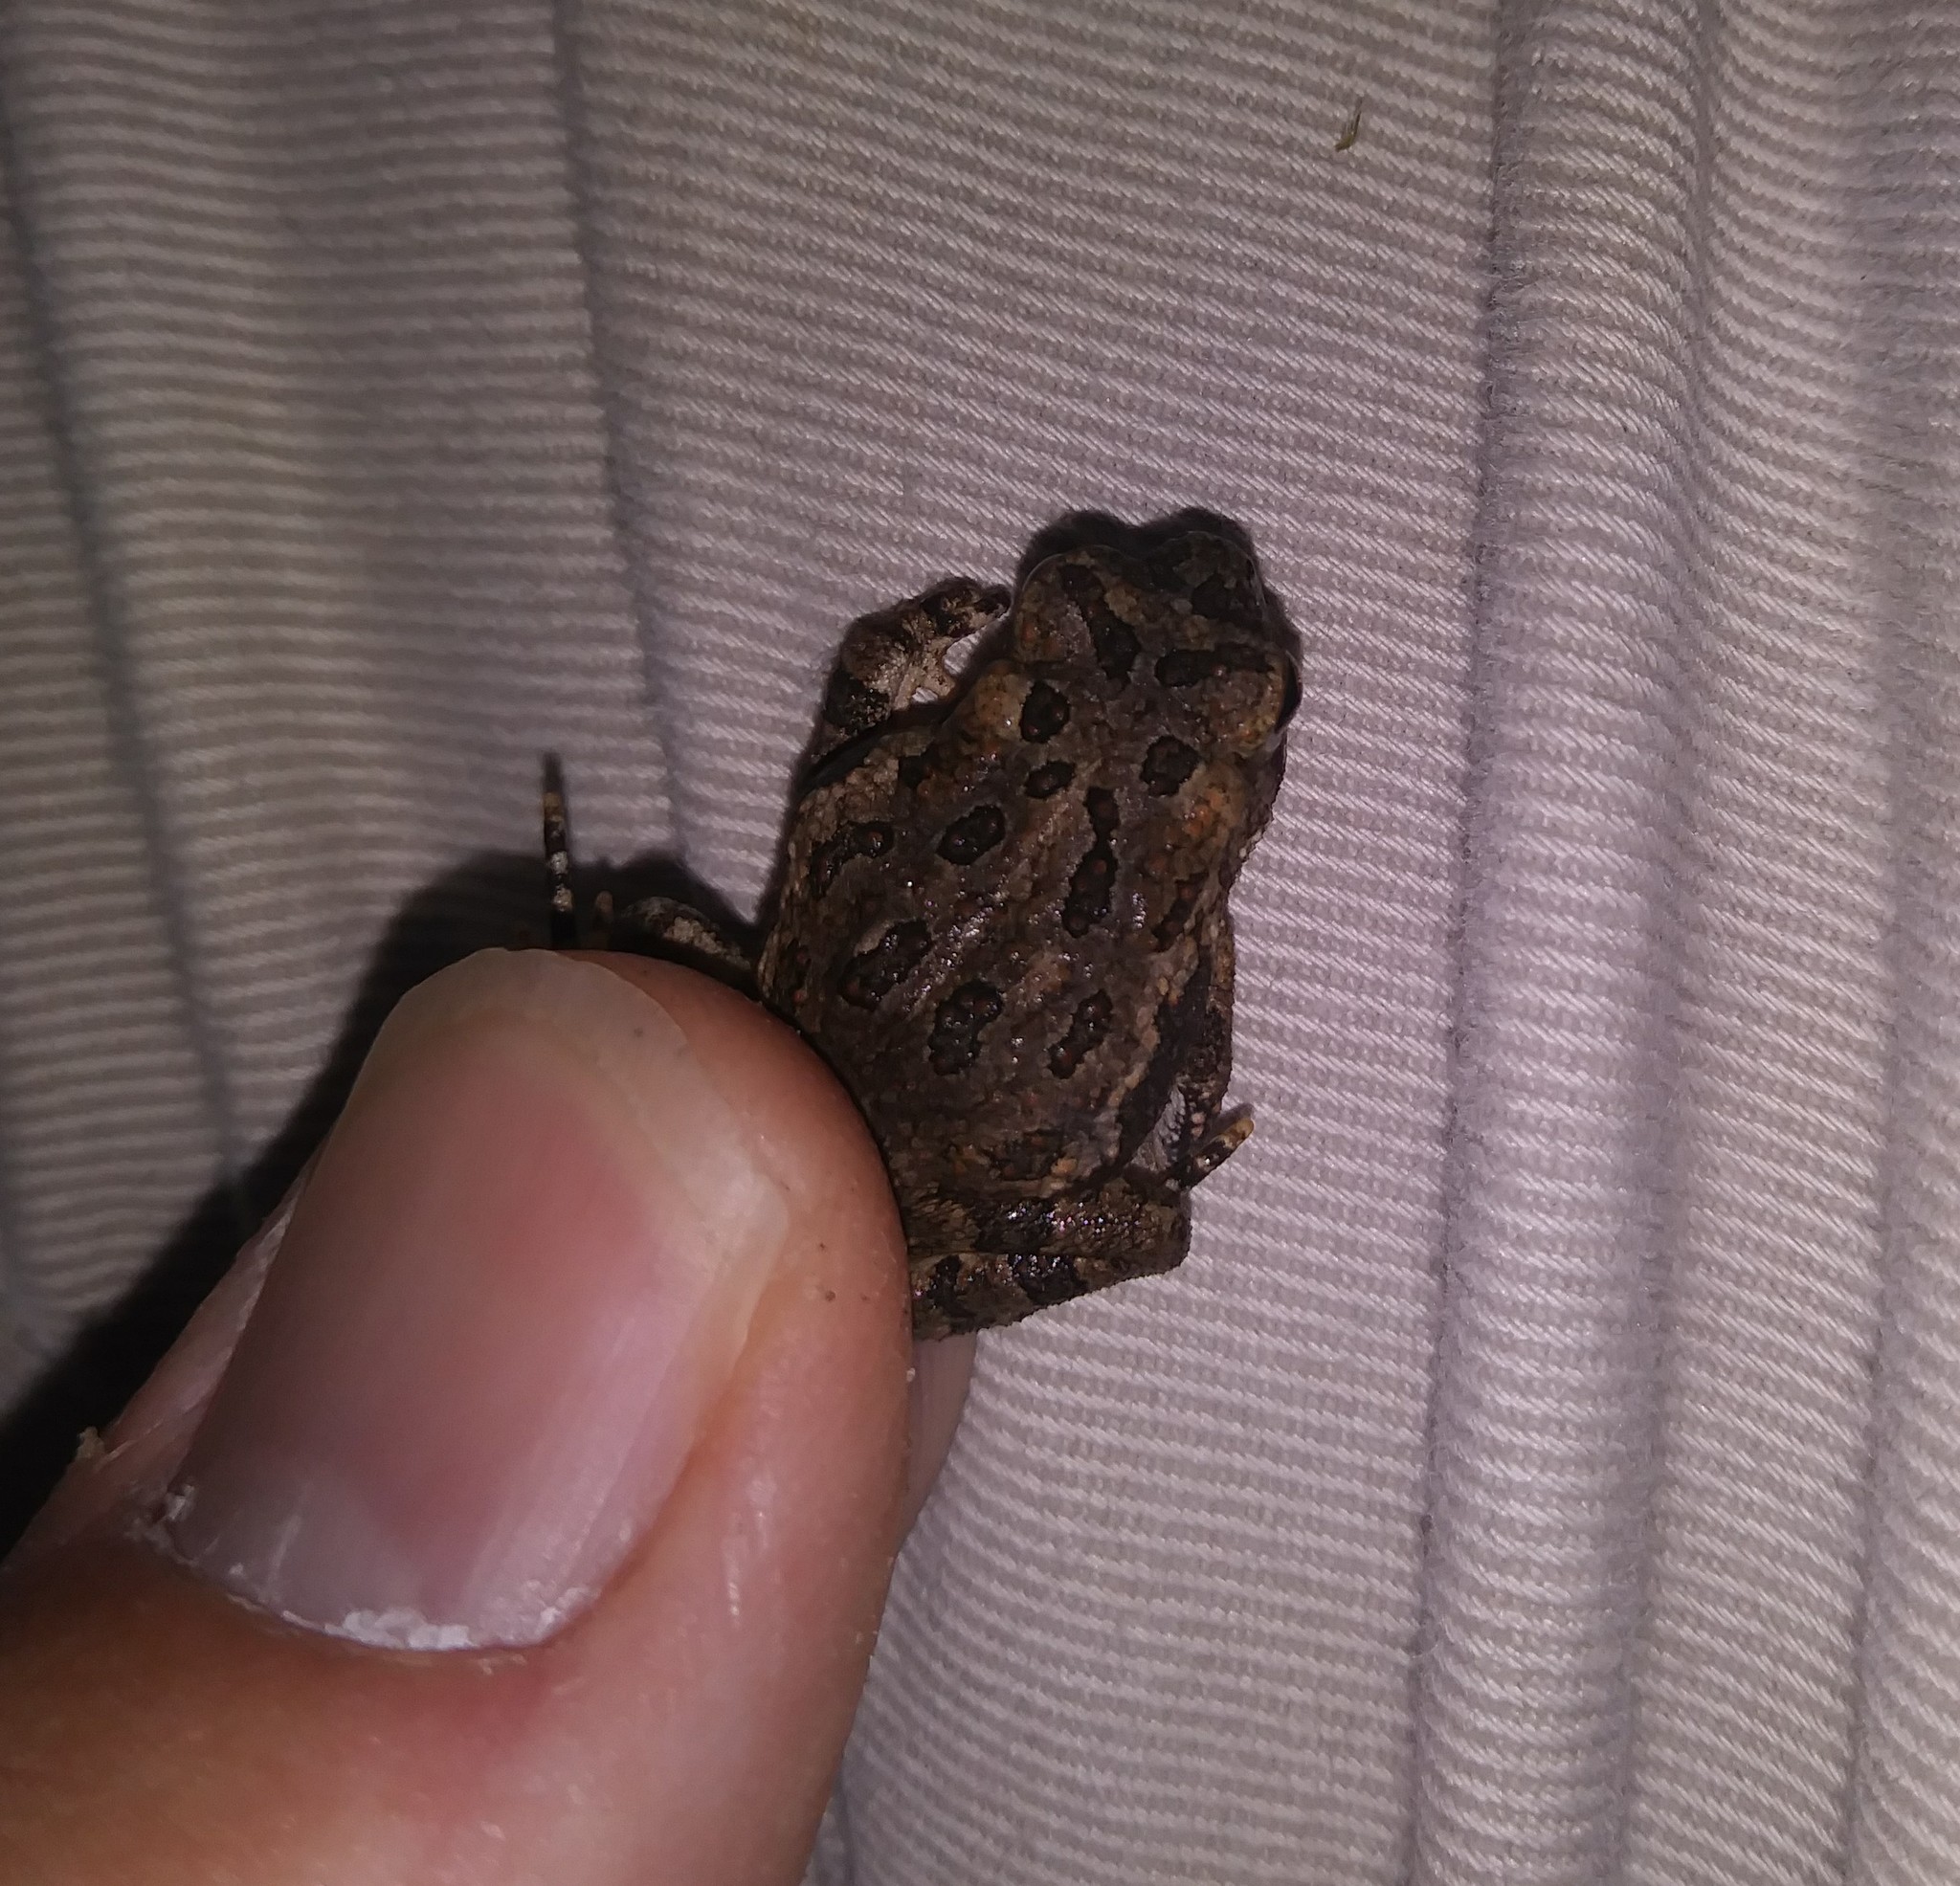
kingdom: Animalia
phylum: Chordata
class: Amphibia
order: Anura
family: Bufonidae
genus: Anaxyrus
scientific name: Anaxyrus fowleri
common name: Fowler's toad
